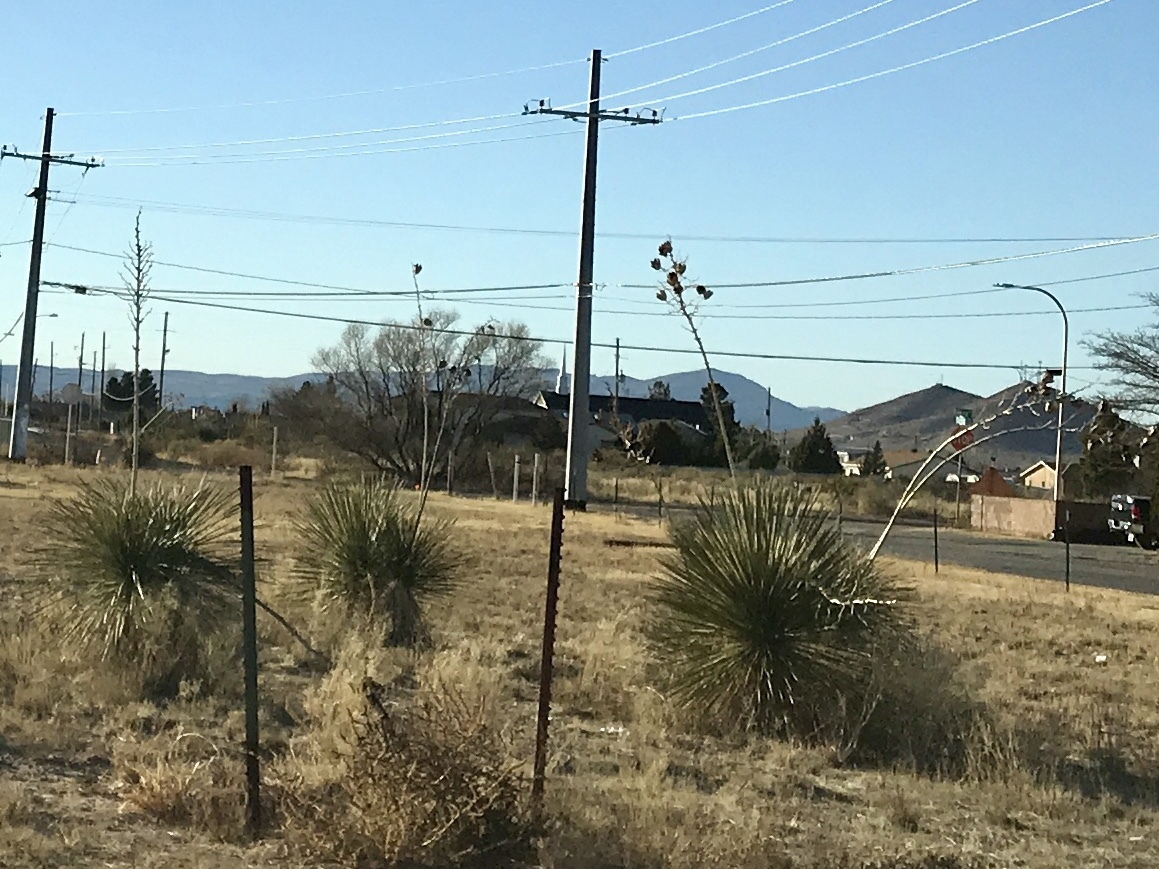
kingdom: Plantae
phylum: Tracheophyta
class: Liliopsida
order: Asparagales
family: Asparagaceae
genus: Yucca
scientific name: Yucca elata
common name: Palmella
